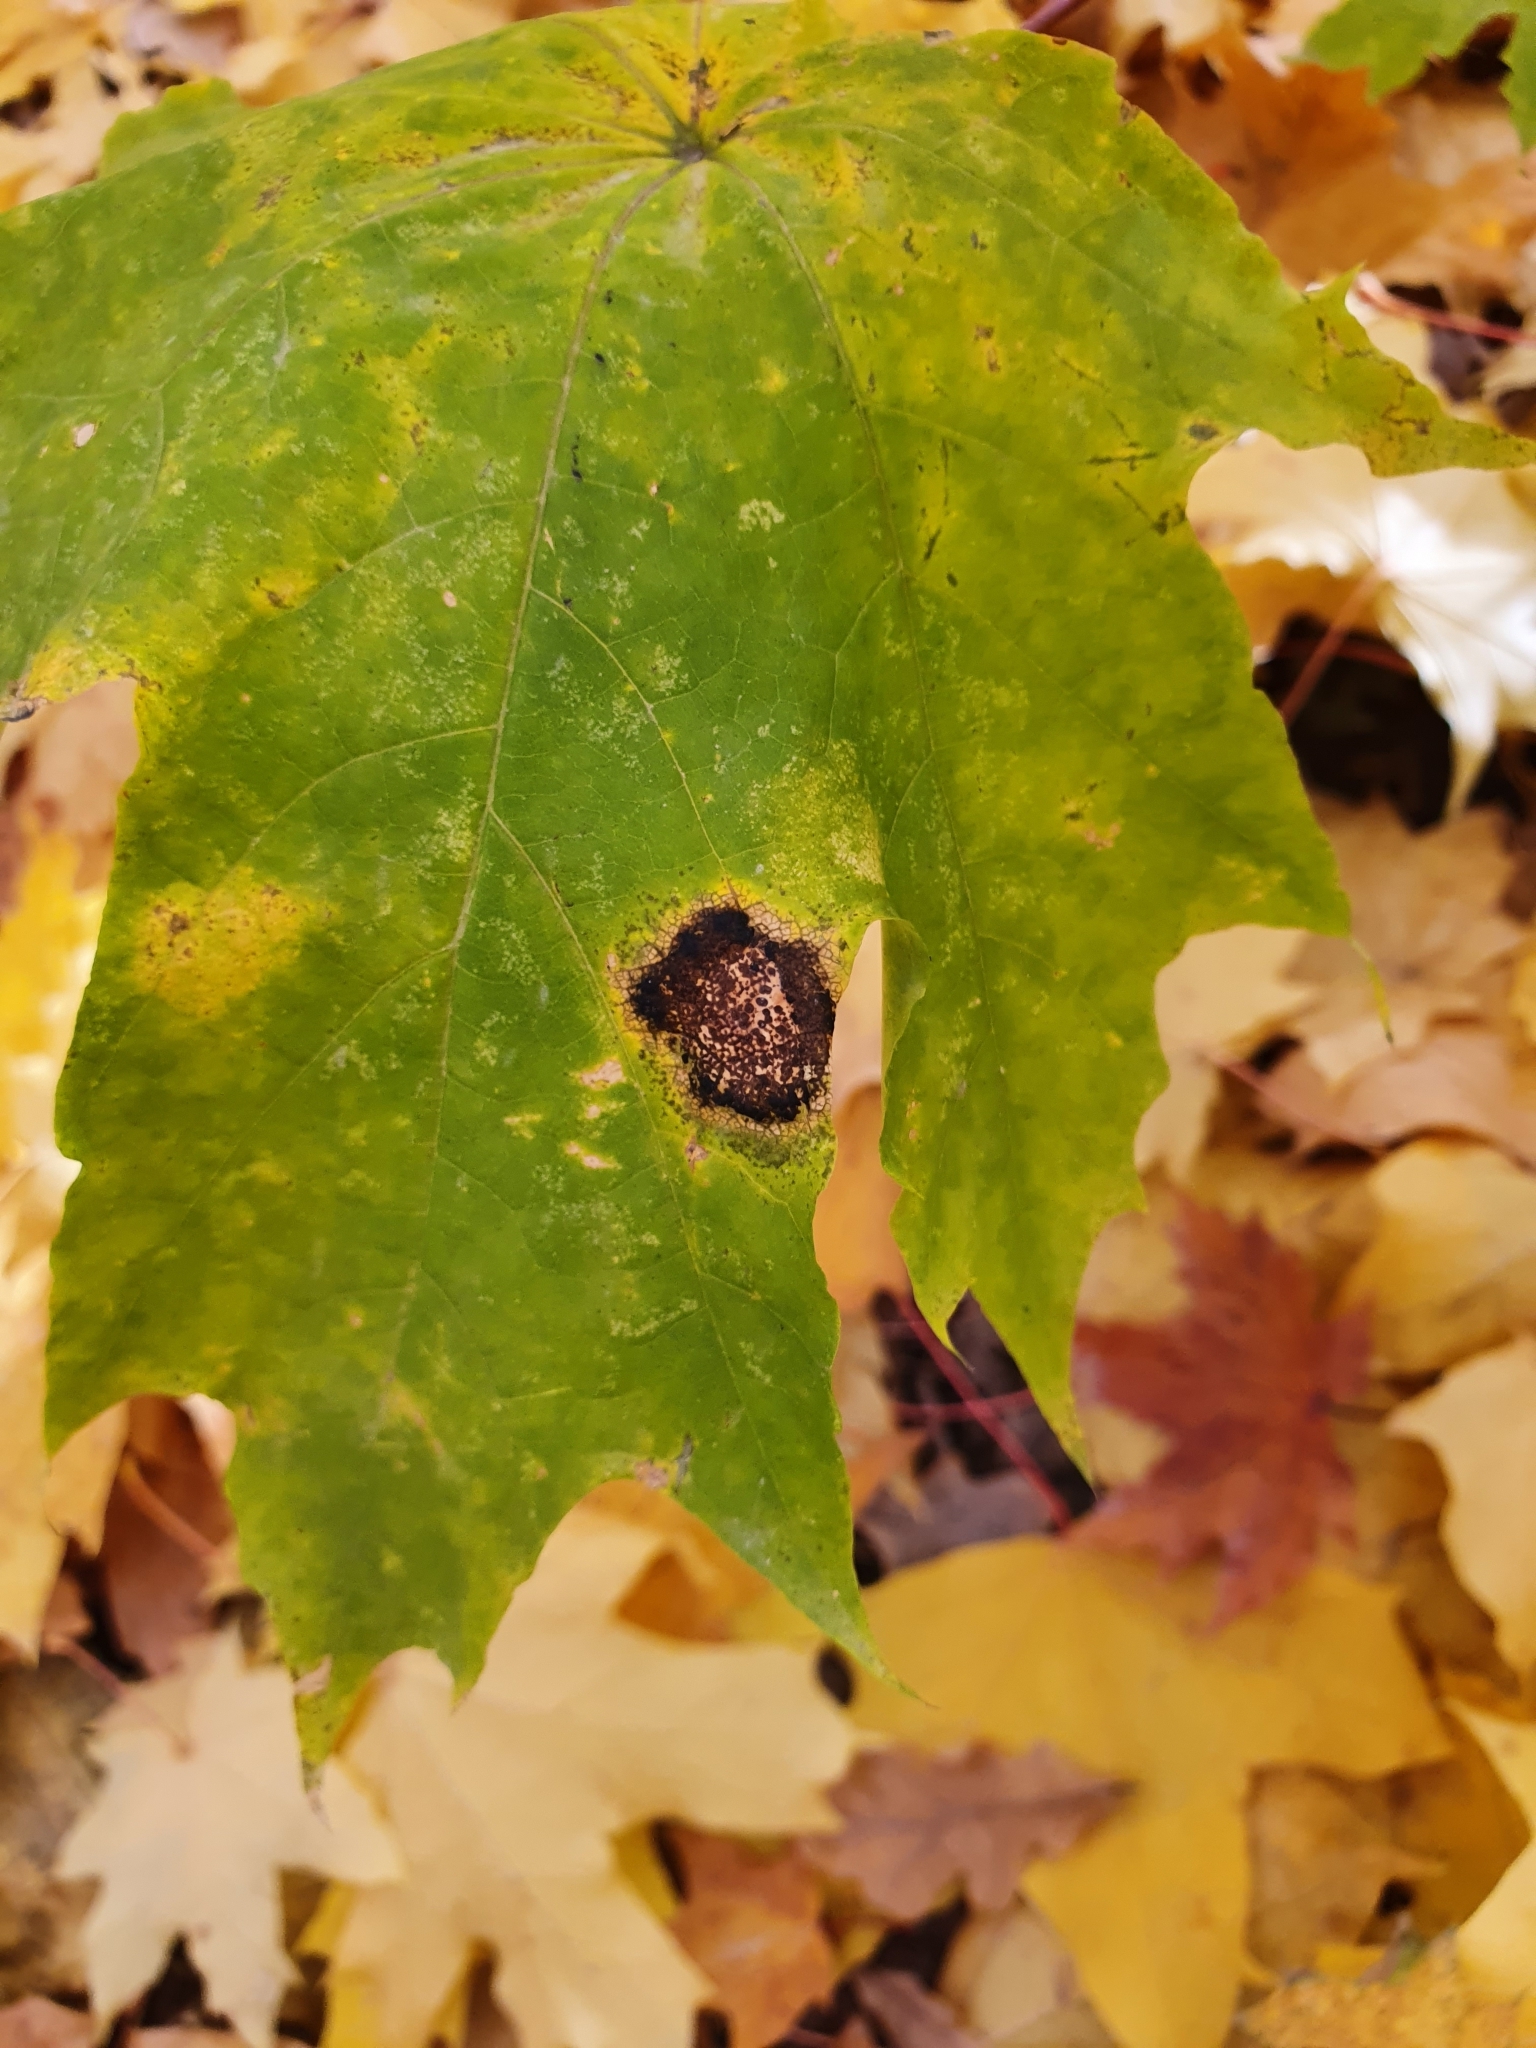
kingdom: Fungi
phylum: Ascomycota
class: Leotiomycetes
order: Rhytismatales
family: Rhytismataceae
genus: Rhytisma
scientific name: Rhytisma acerinum
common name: European tar spot
